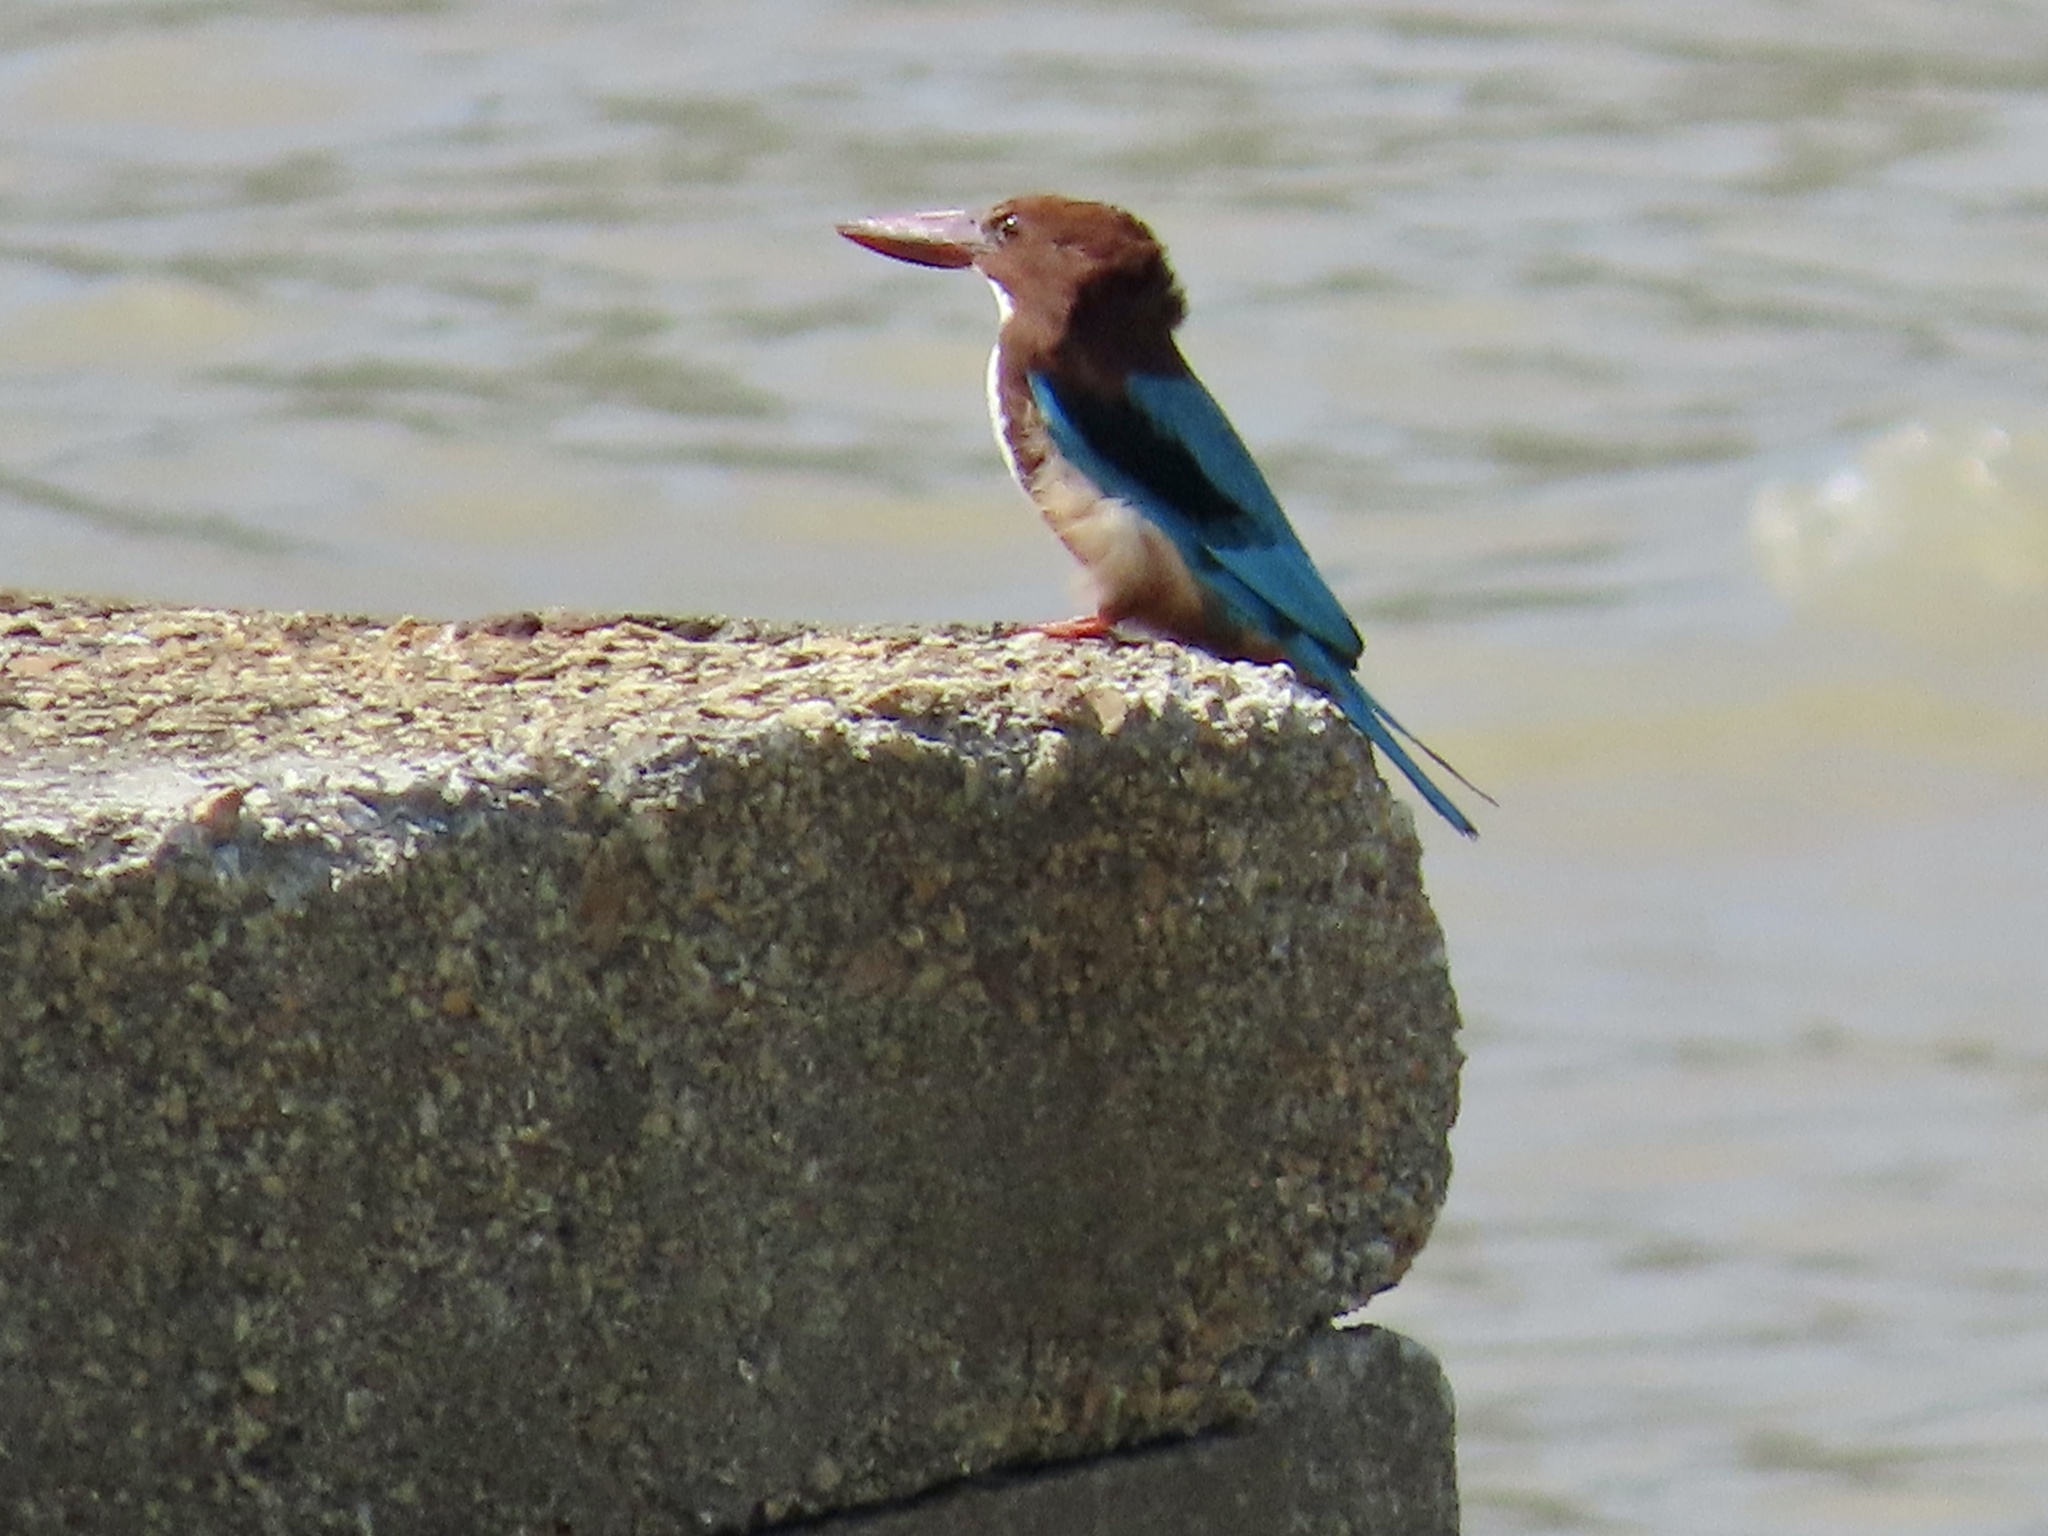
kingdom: Animalia
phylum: Chordata
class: Aves
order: Coraciiformes
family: Alcedinidae
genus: Halcyon
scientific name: Halcyon smyrnensis
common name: White-throated kingfisher
